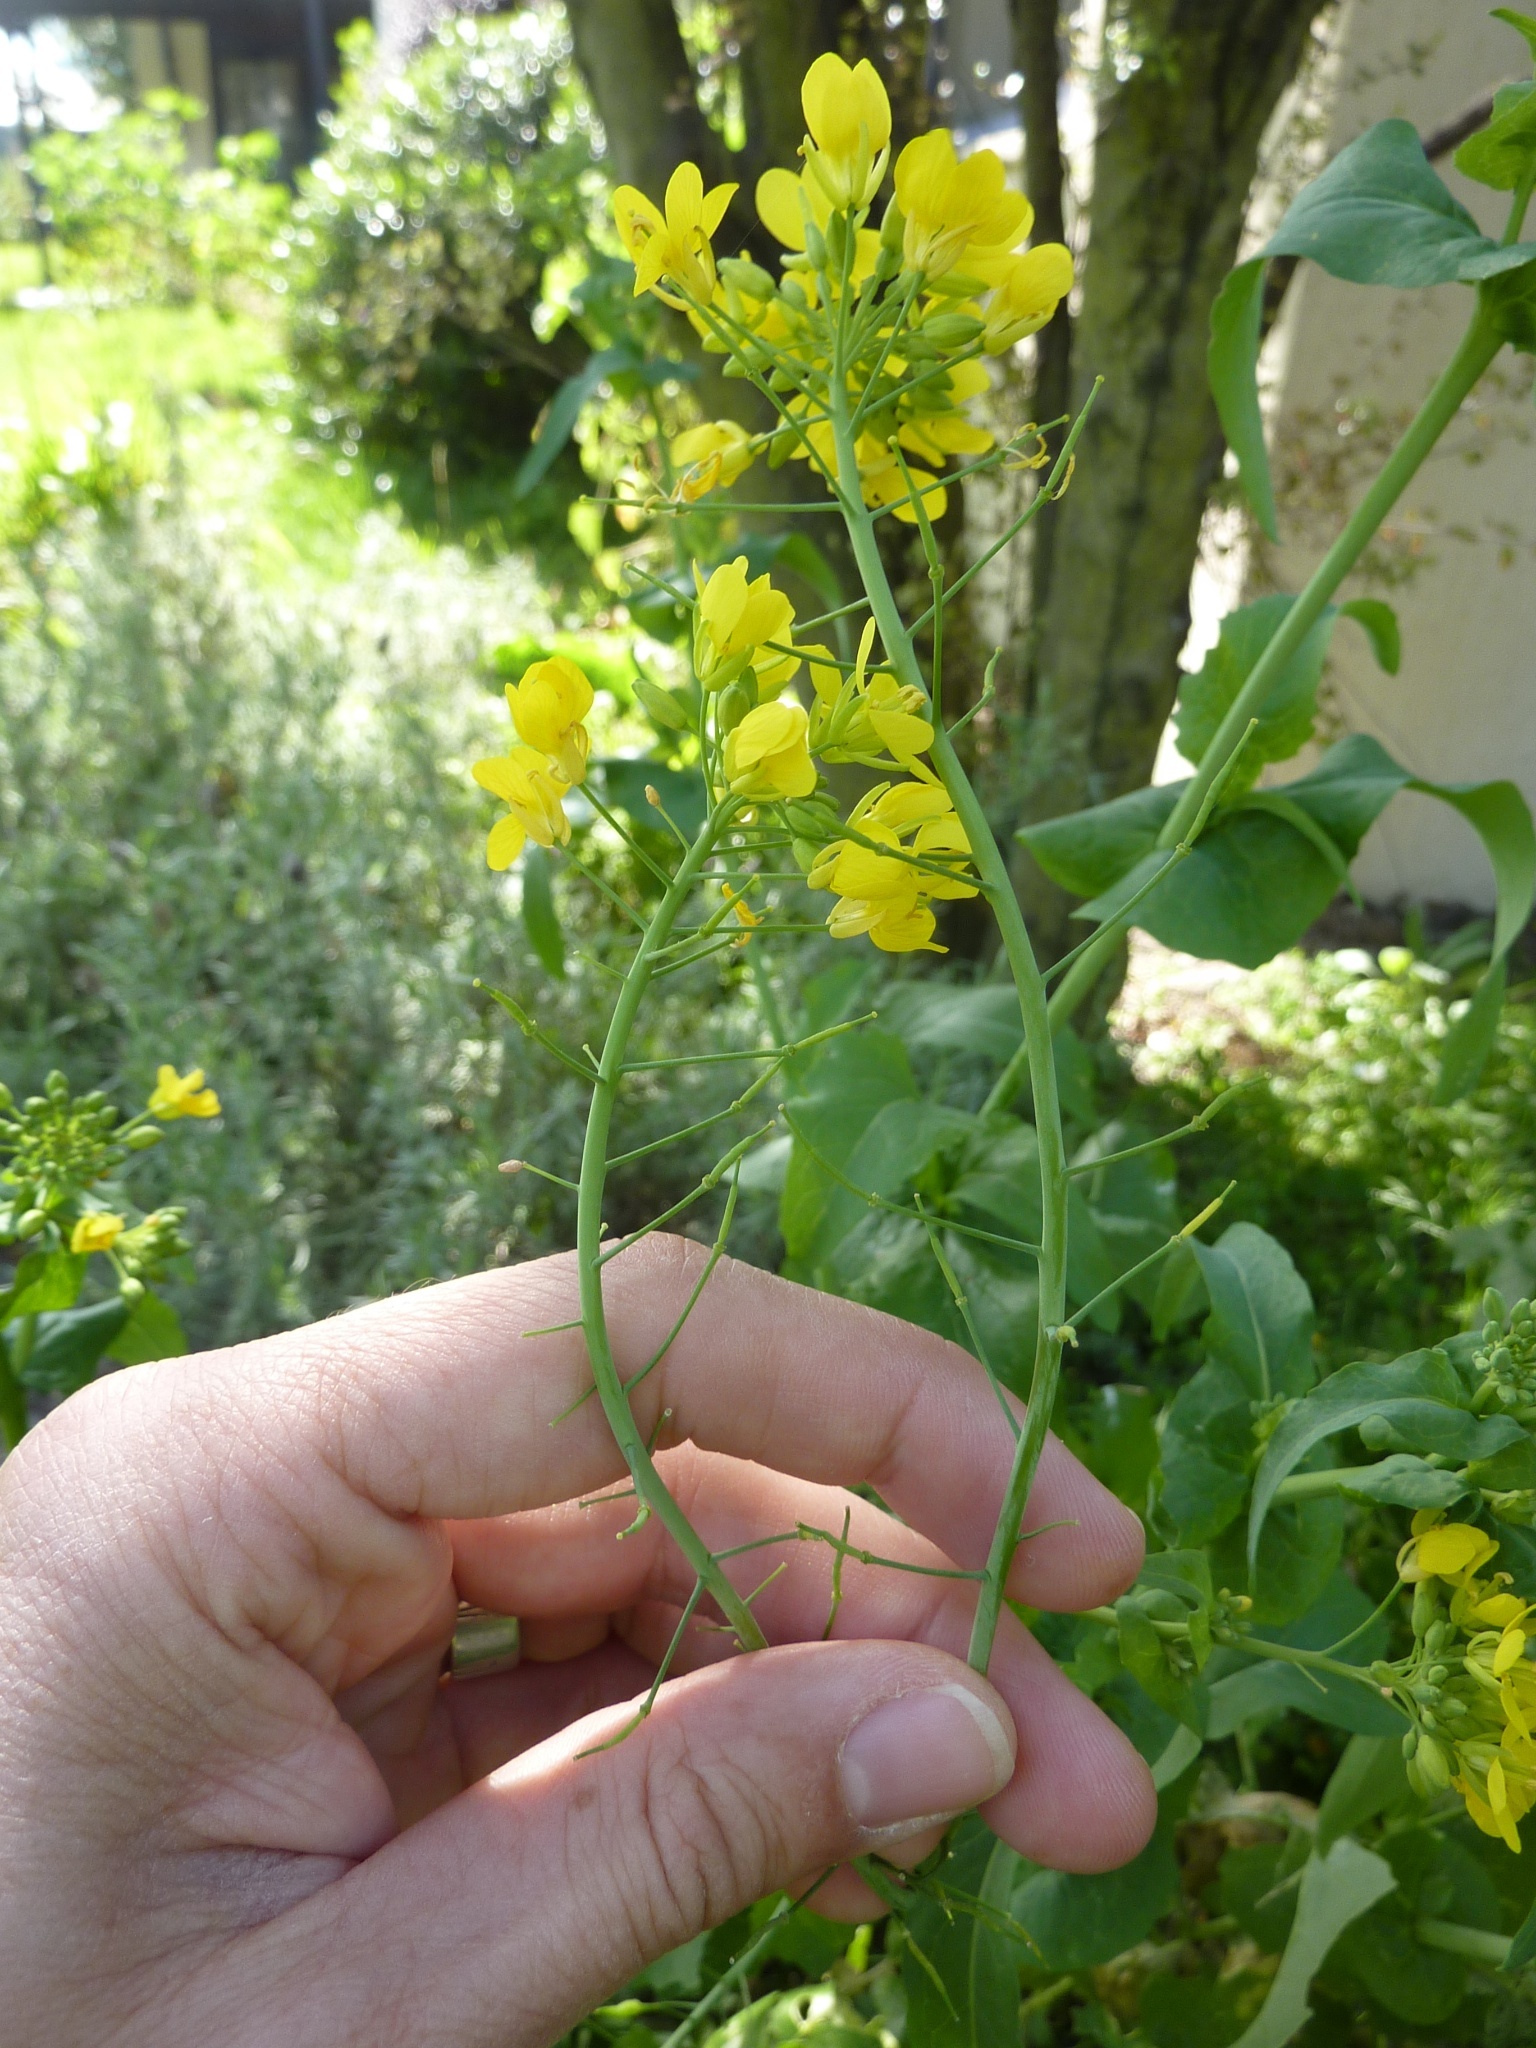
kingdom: Plantae
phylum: Tracheophyta
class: Magnoliopsida
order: Brassicales
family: Brassicaceae
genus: Brassica
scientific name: Brassica rapa
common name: Field mustard
